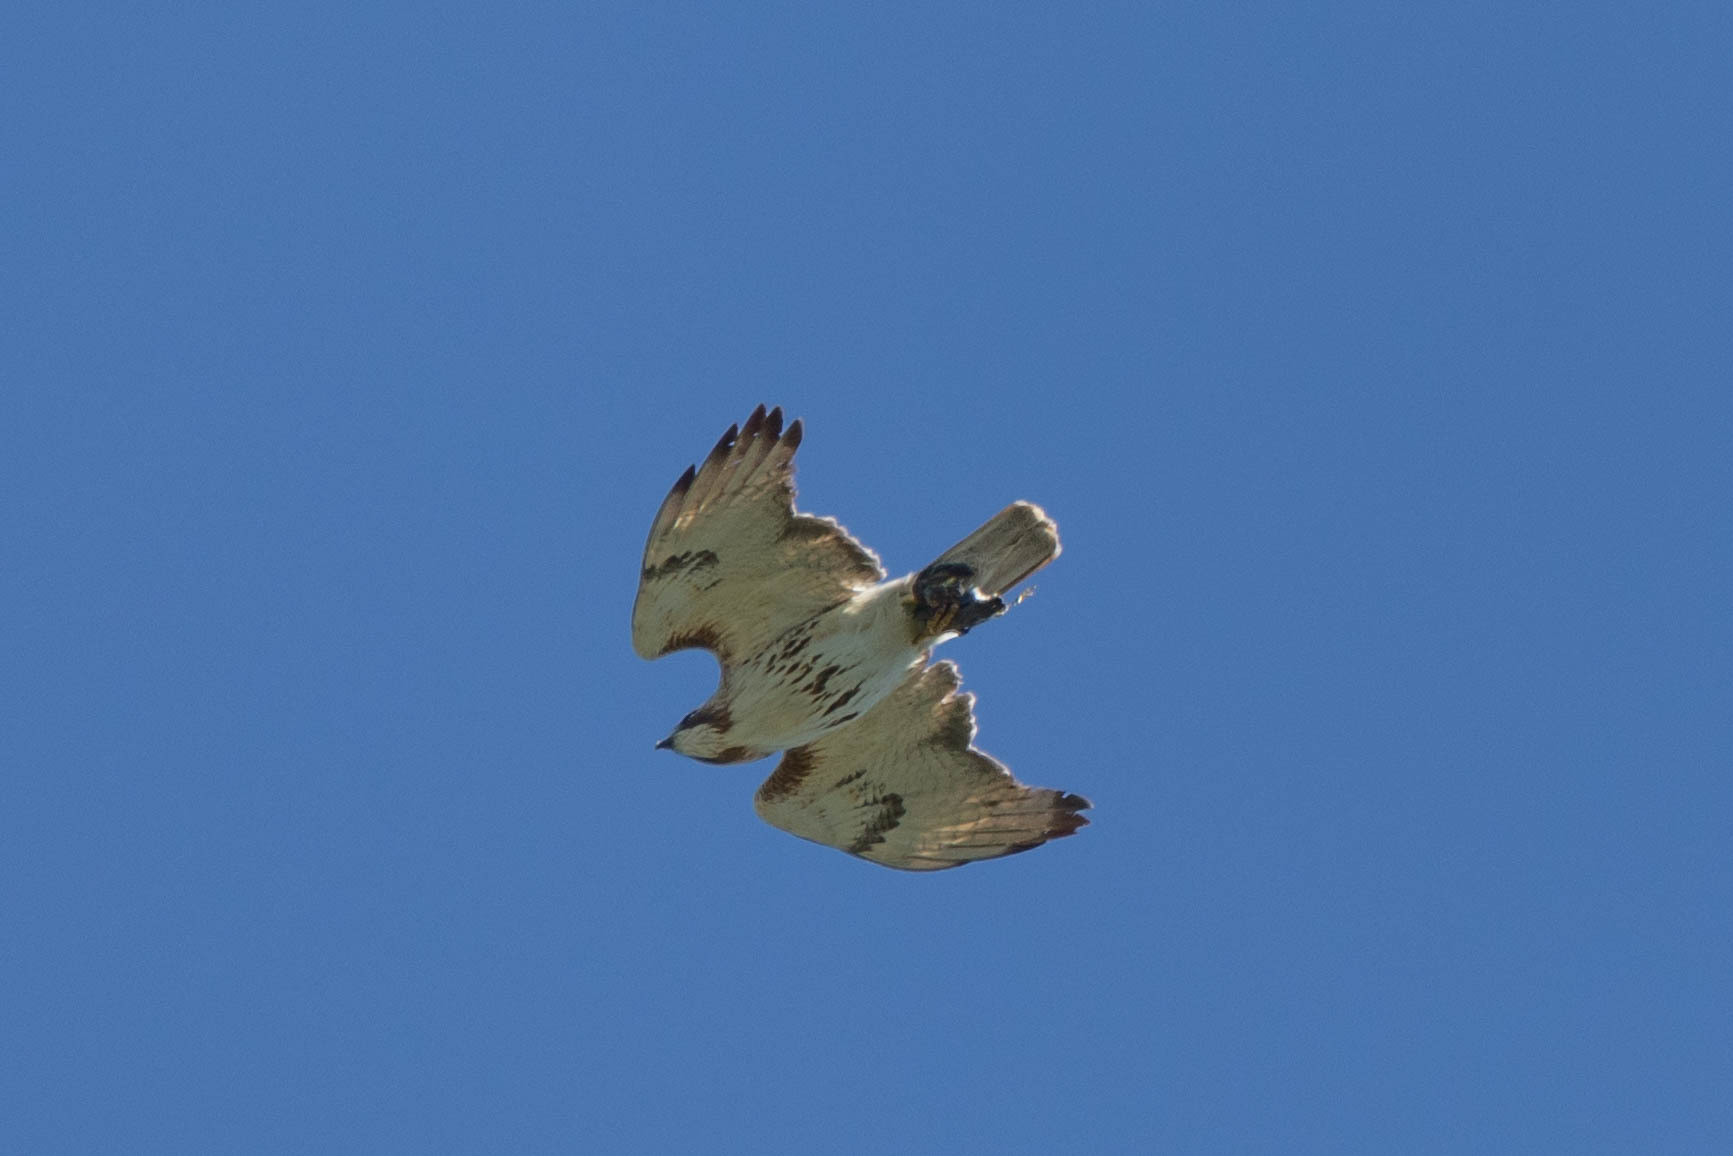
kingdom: Animalia
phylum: Chordata
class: Aves
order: Accipitriformes
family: Accipitridae
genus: Buteo
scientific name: Buteo jamaicensis
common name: Red-tailed hawk
